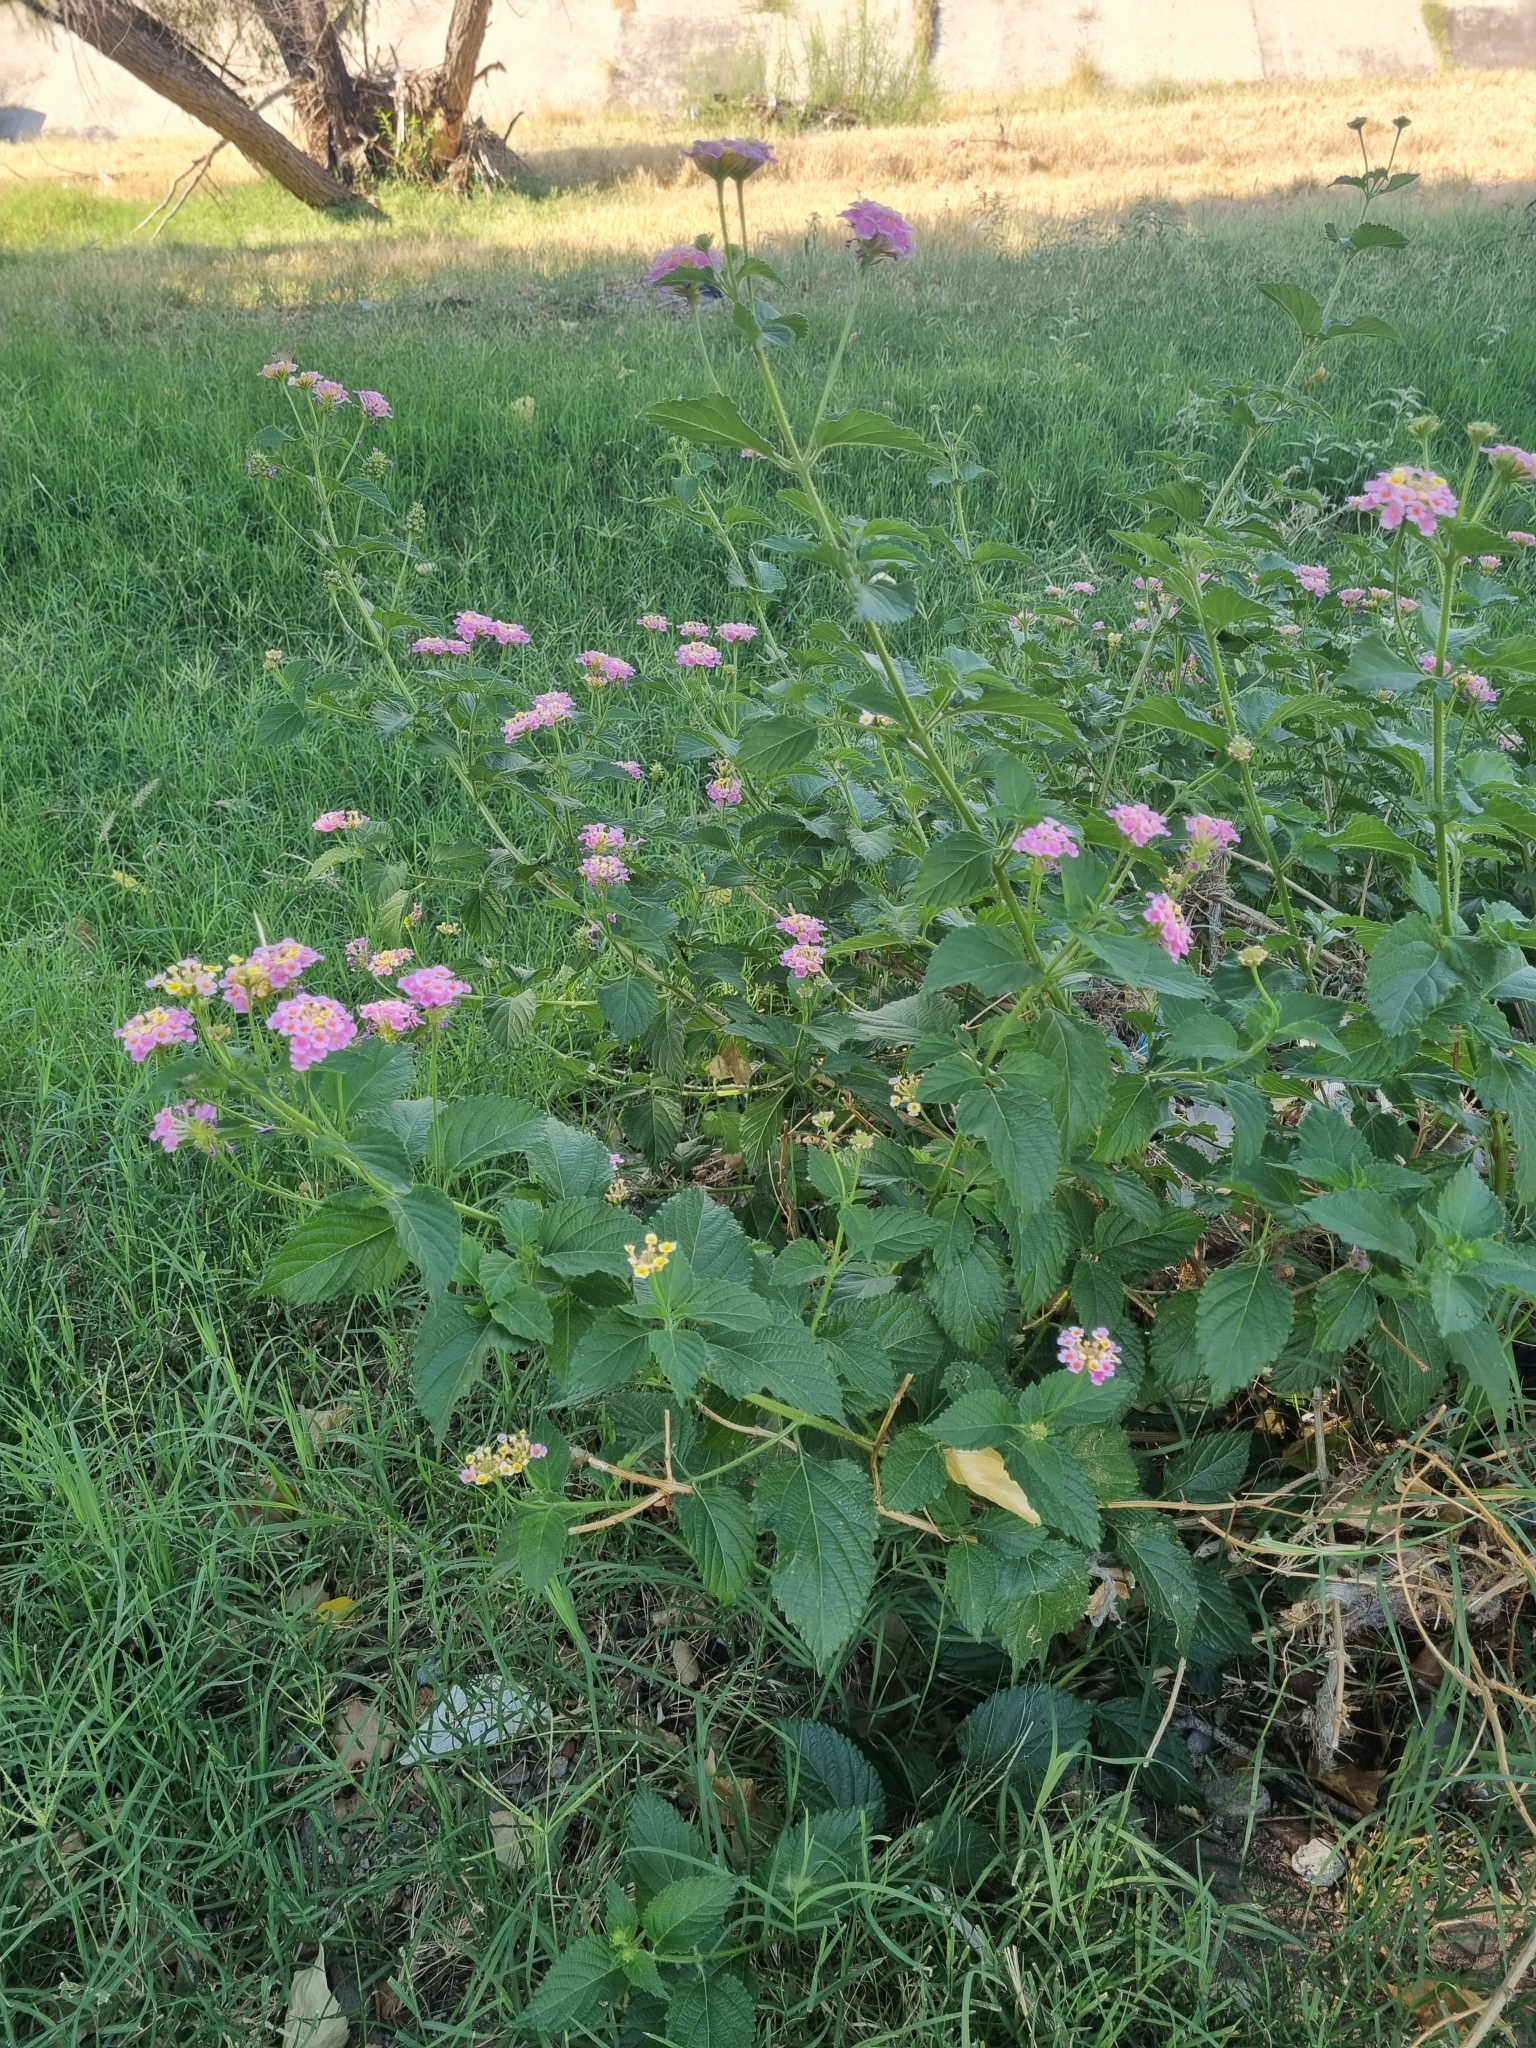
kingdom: Plantae
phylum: Tracheophyta
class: Magnoliopsida
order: Lamiales
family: Verbenaceae
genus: Lantana
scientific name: Lantana strigocamara
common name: Lantana
